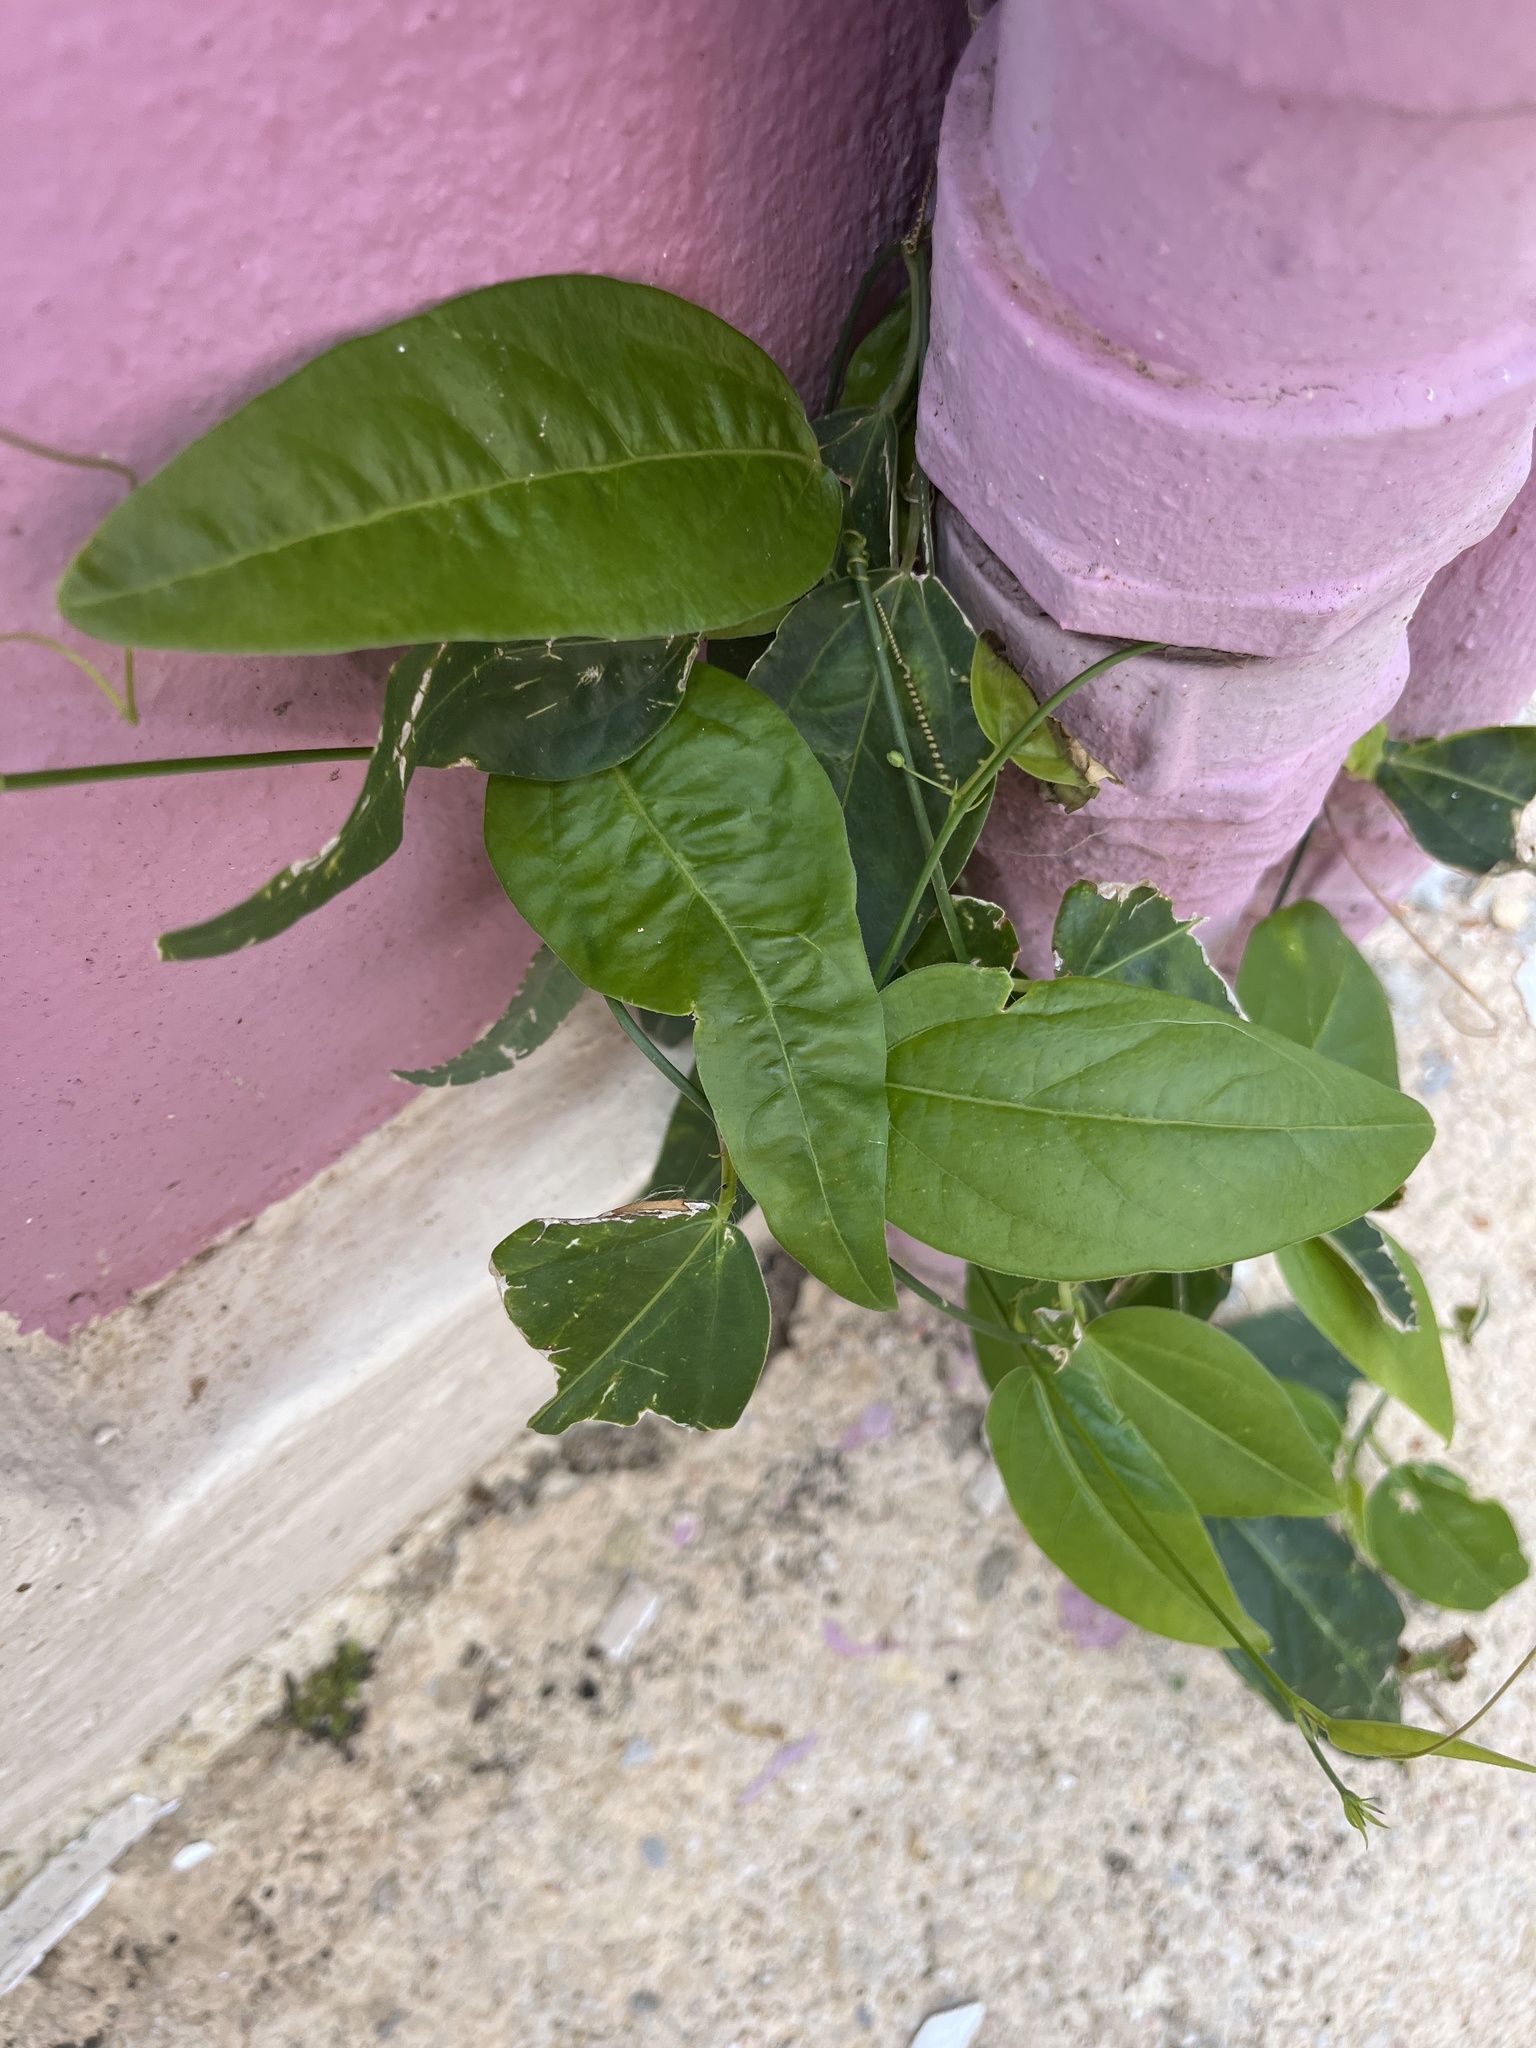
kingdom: Plantae
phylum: Tracheophyta
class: Magnoliopsida
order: Malpighiales
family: Passifloraceae
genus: Passiflora
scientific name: Passiflora pallida
